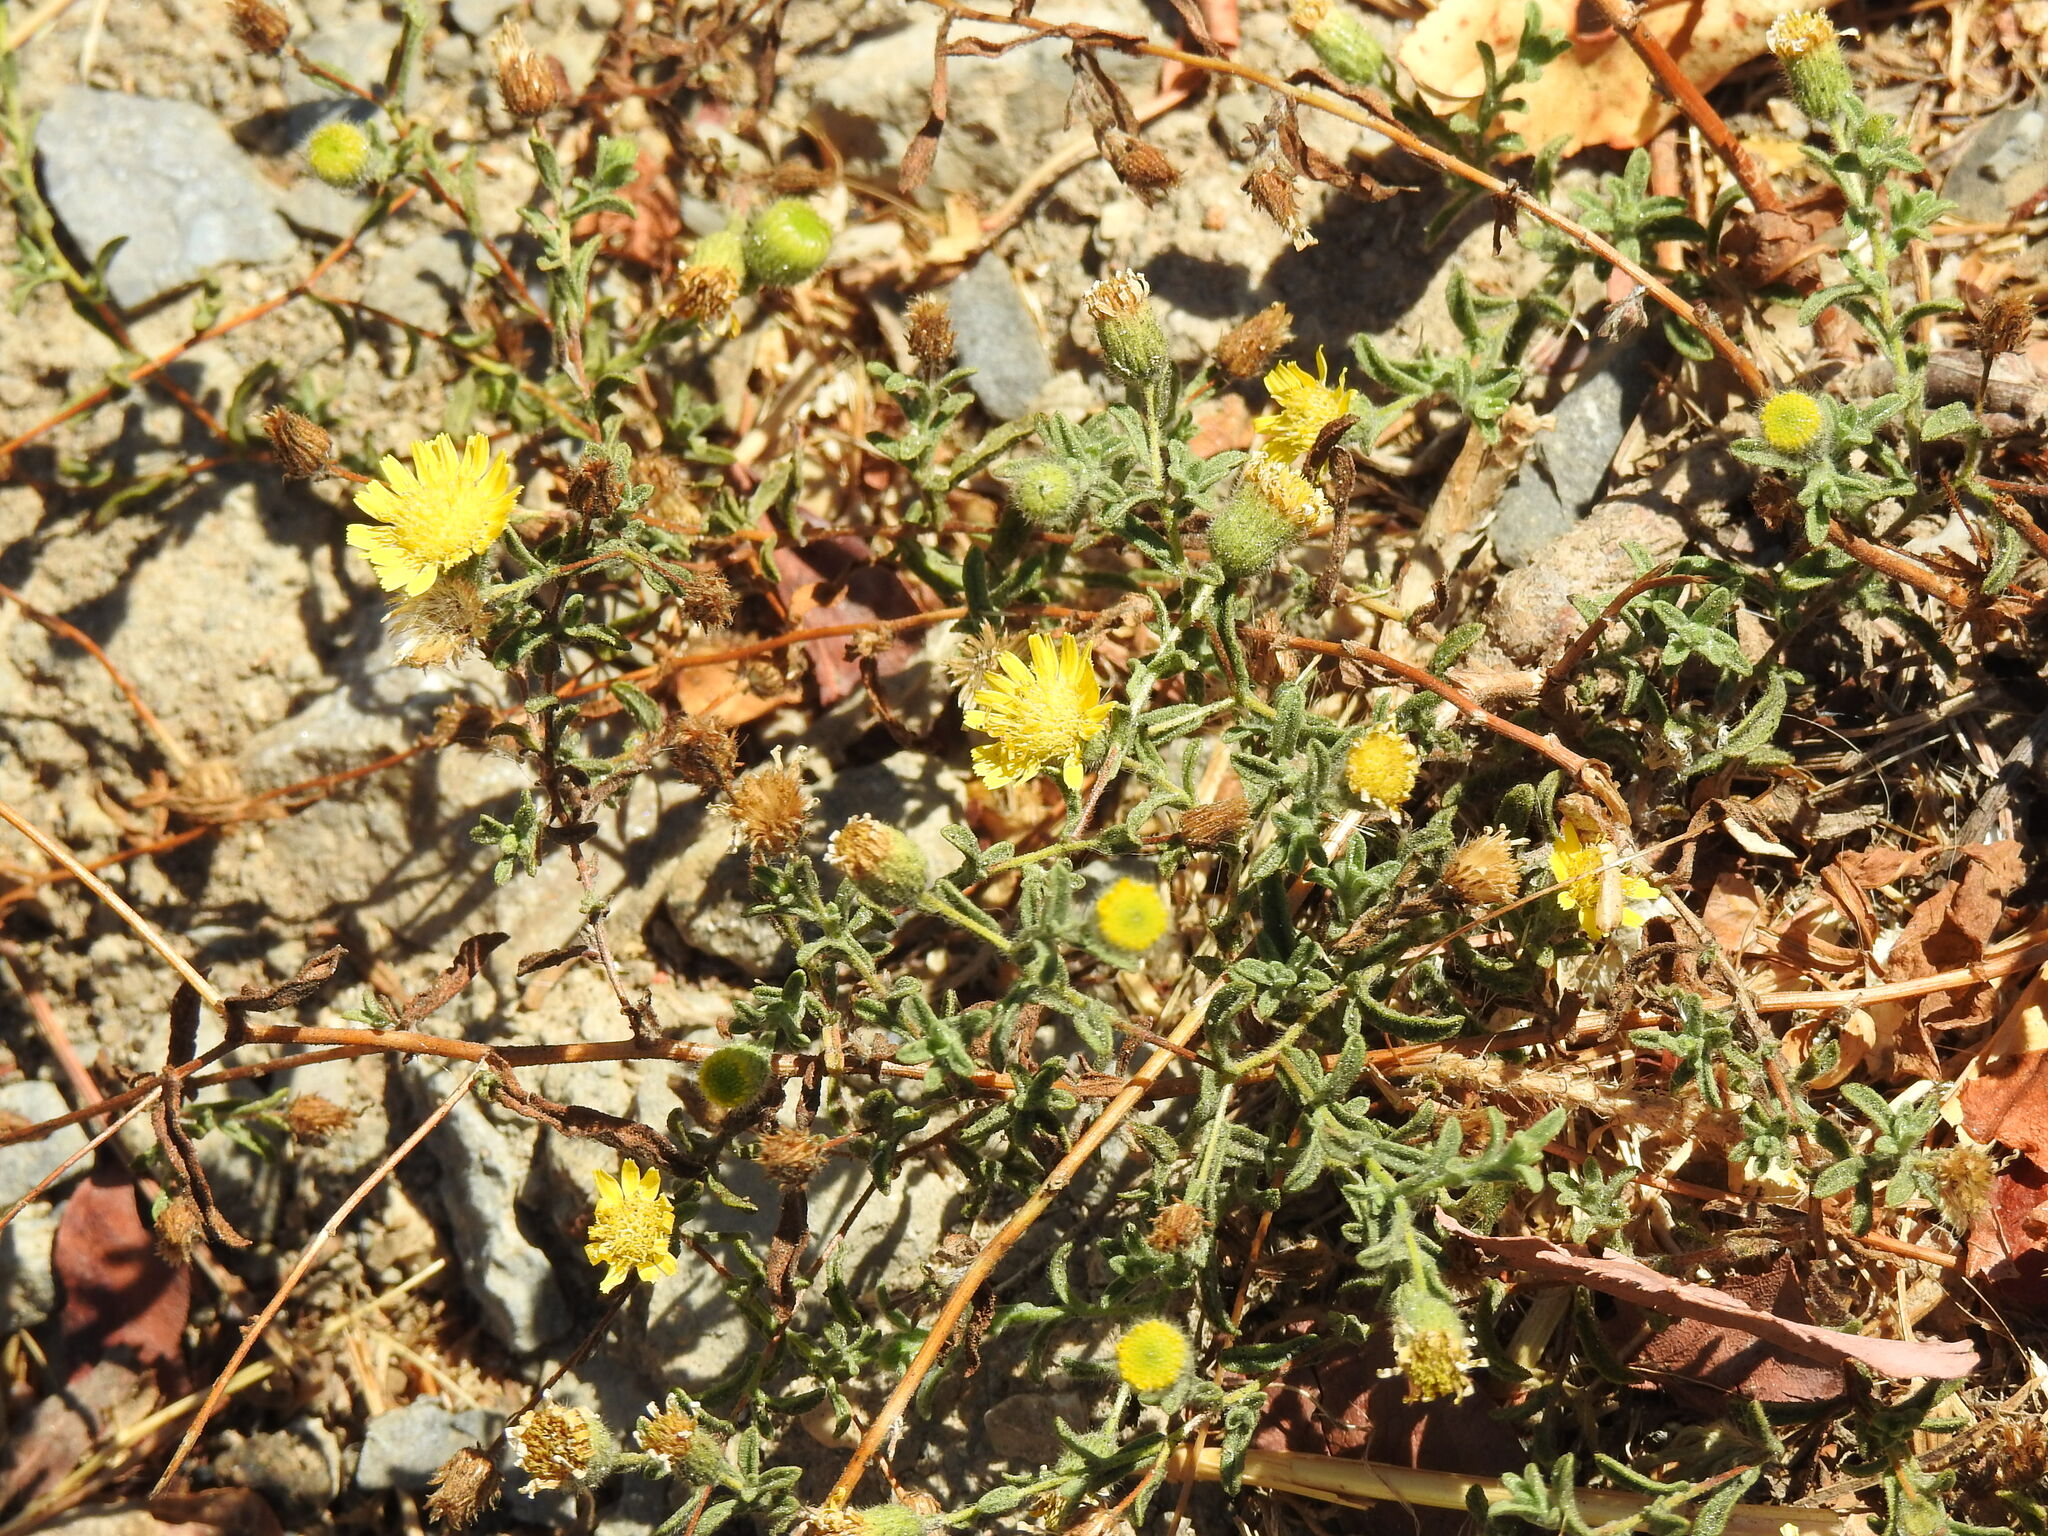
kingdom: Plantae
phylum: Tracheophyta
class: Magnoliopsida
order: Asterales
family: Asteraceae
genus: Pulicaria
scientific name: Pulicaria paludosa
